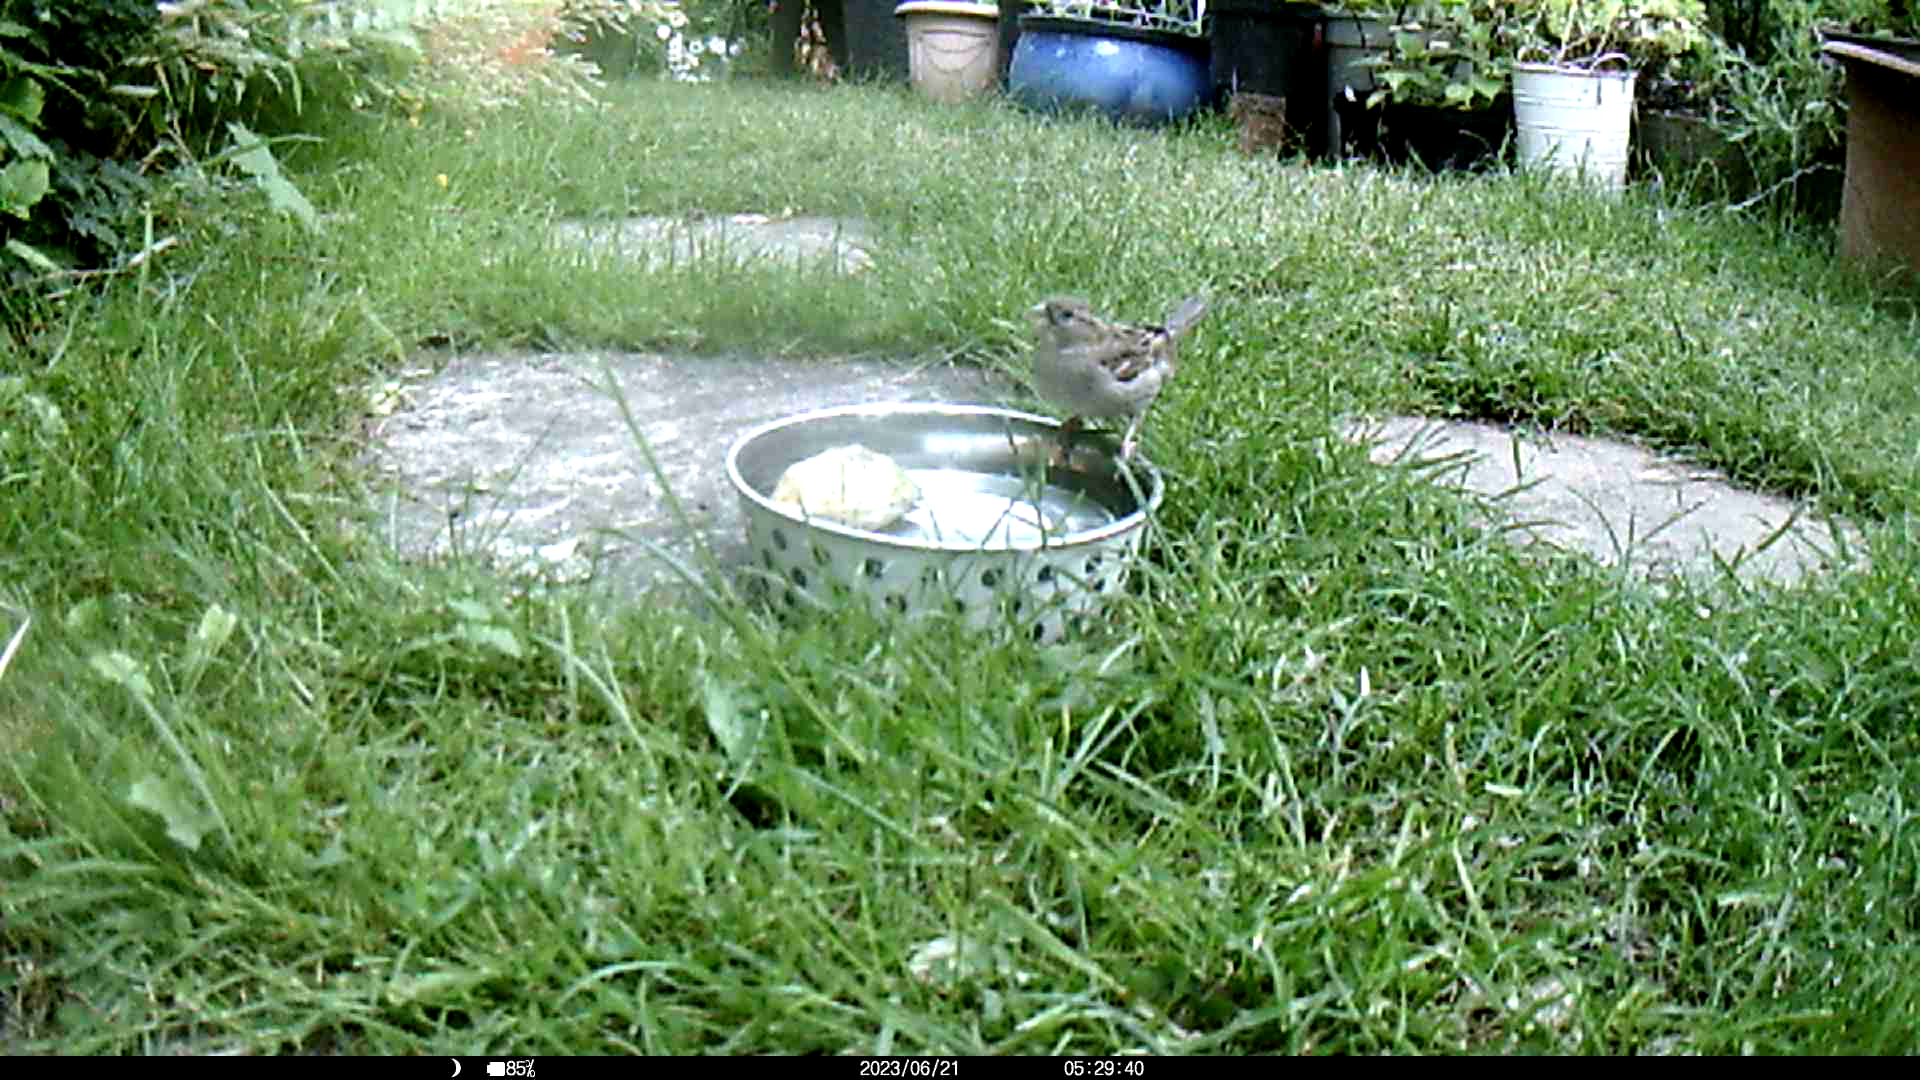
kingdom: Animalia
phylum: Chordata
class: Aves
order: Passeriformes
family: Passeridae
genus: Passer
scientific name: Passer domesticus
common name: House sparrow
